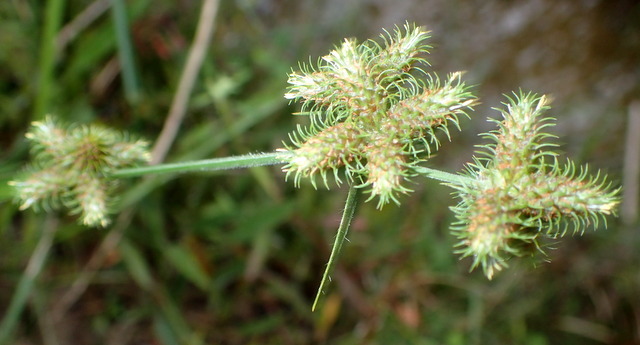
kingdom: Plantae
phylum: Tracheophyta
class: Liliopsida
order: Poales
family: Cyperaceae
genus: Fuirena
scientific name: Fuirena breviseta
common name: Saltmarsh umbrella sedge
